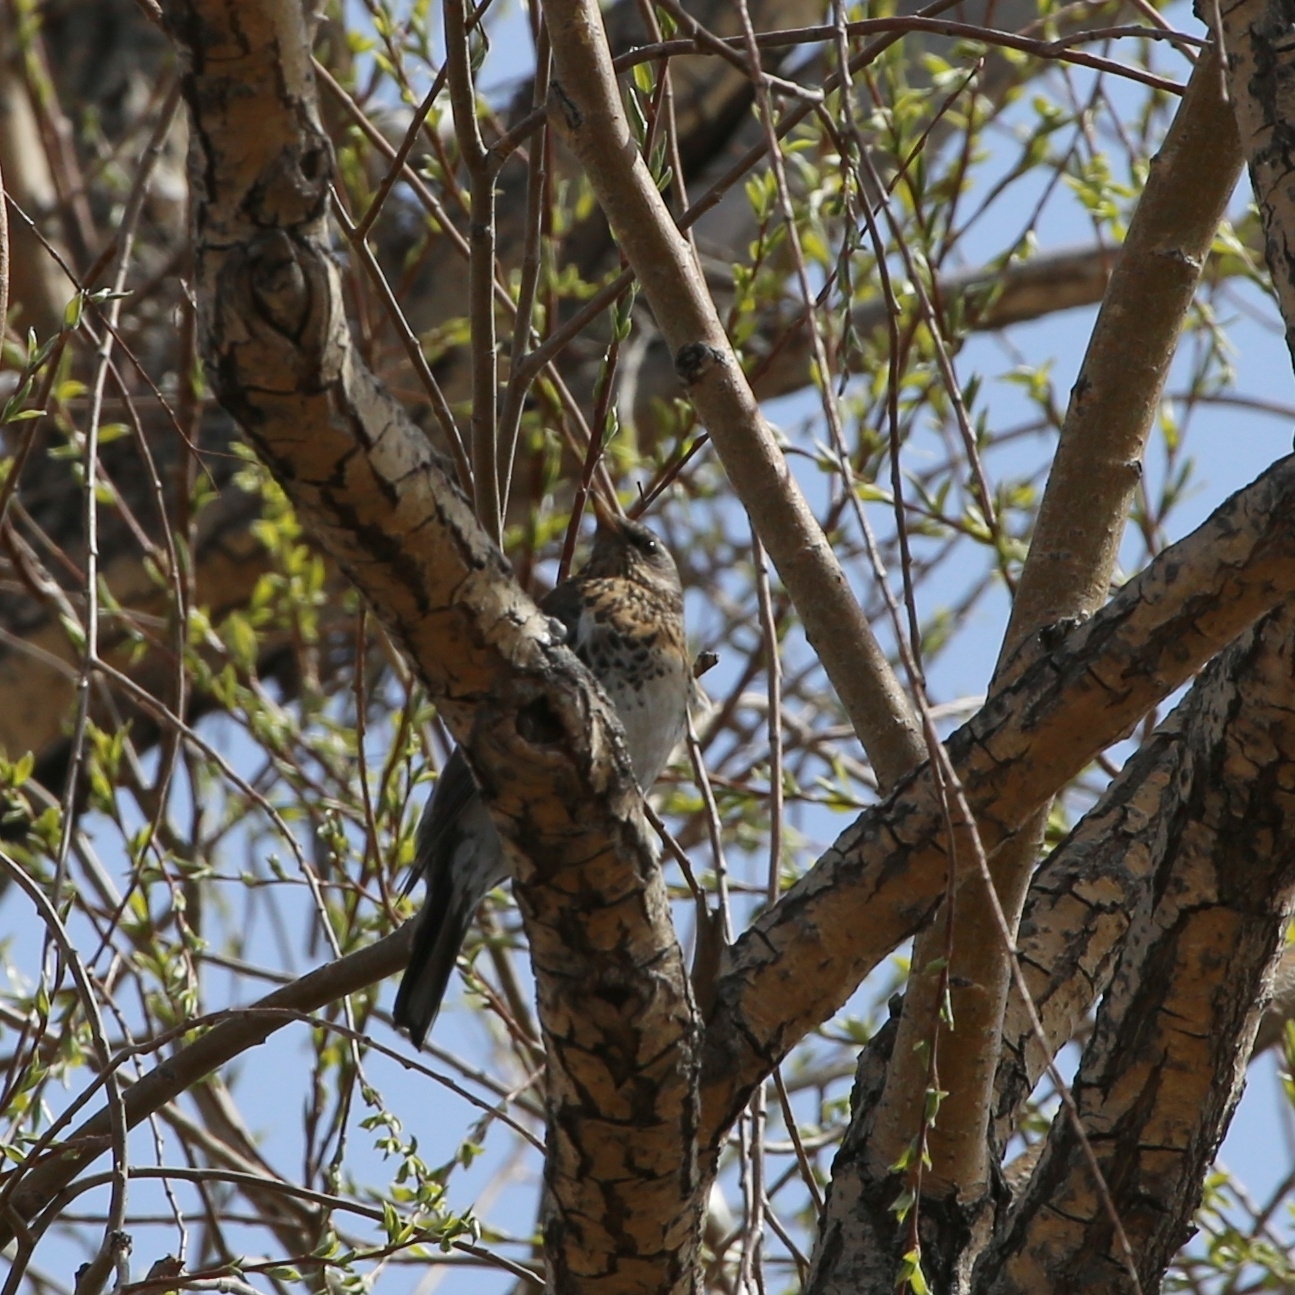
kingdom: Animalia
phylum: Chordata
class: Aves
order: Passeriformes
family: Turdidae
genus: Turdus
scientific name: Turdus pilaris
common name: Fieldfare
